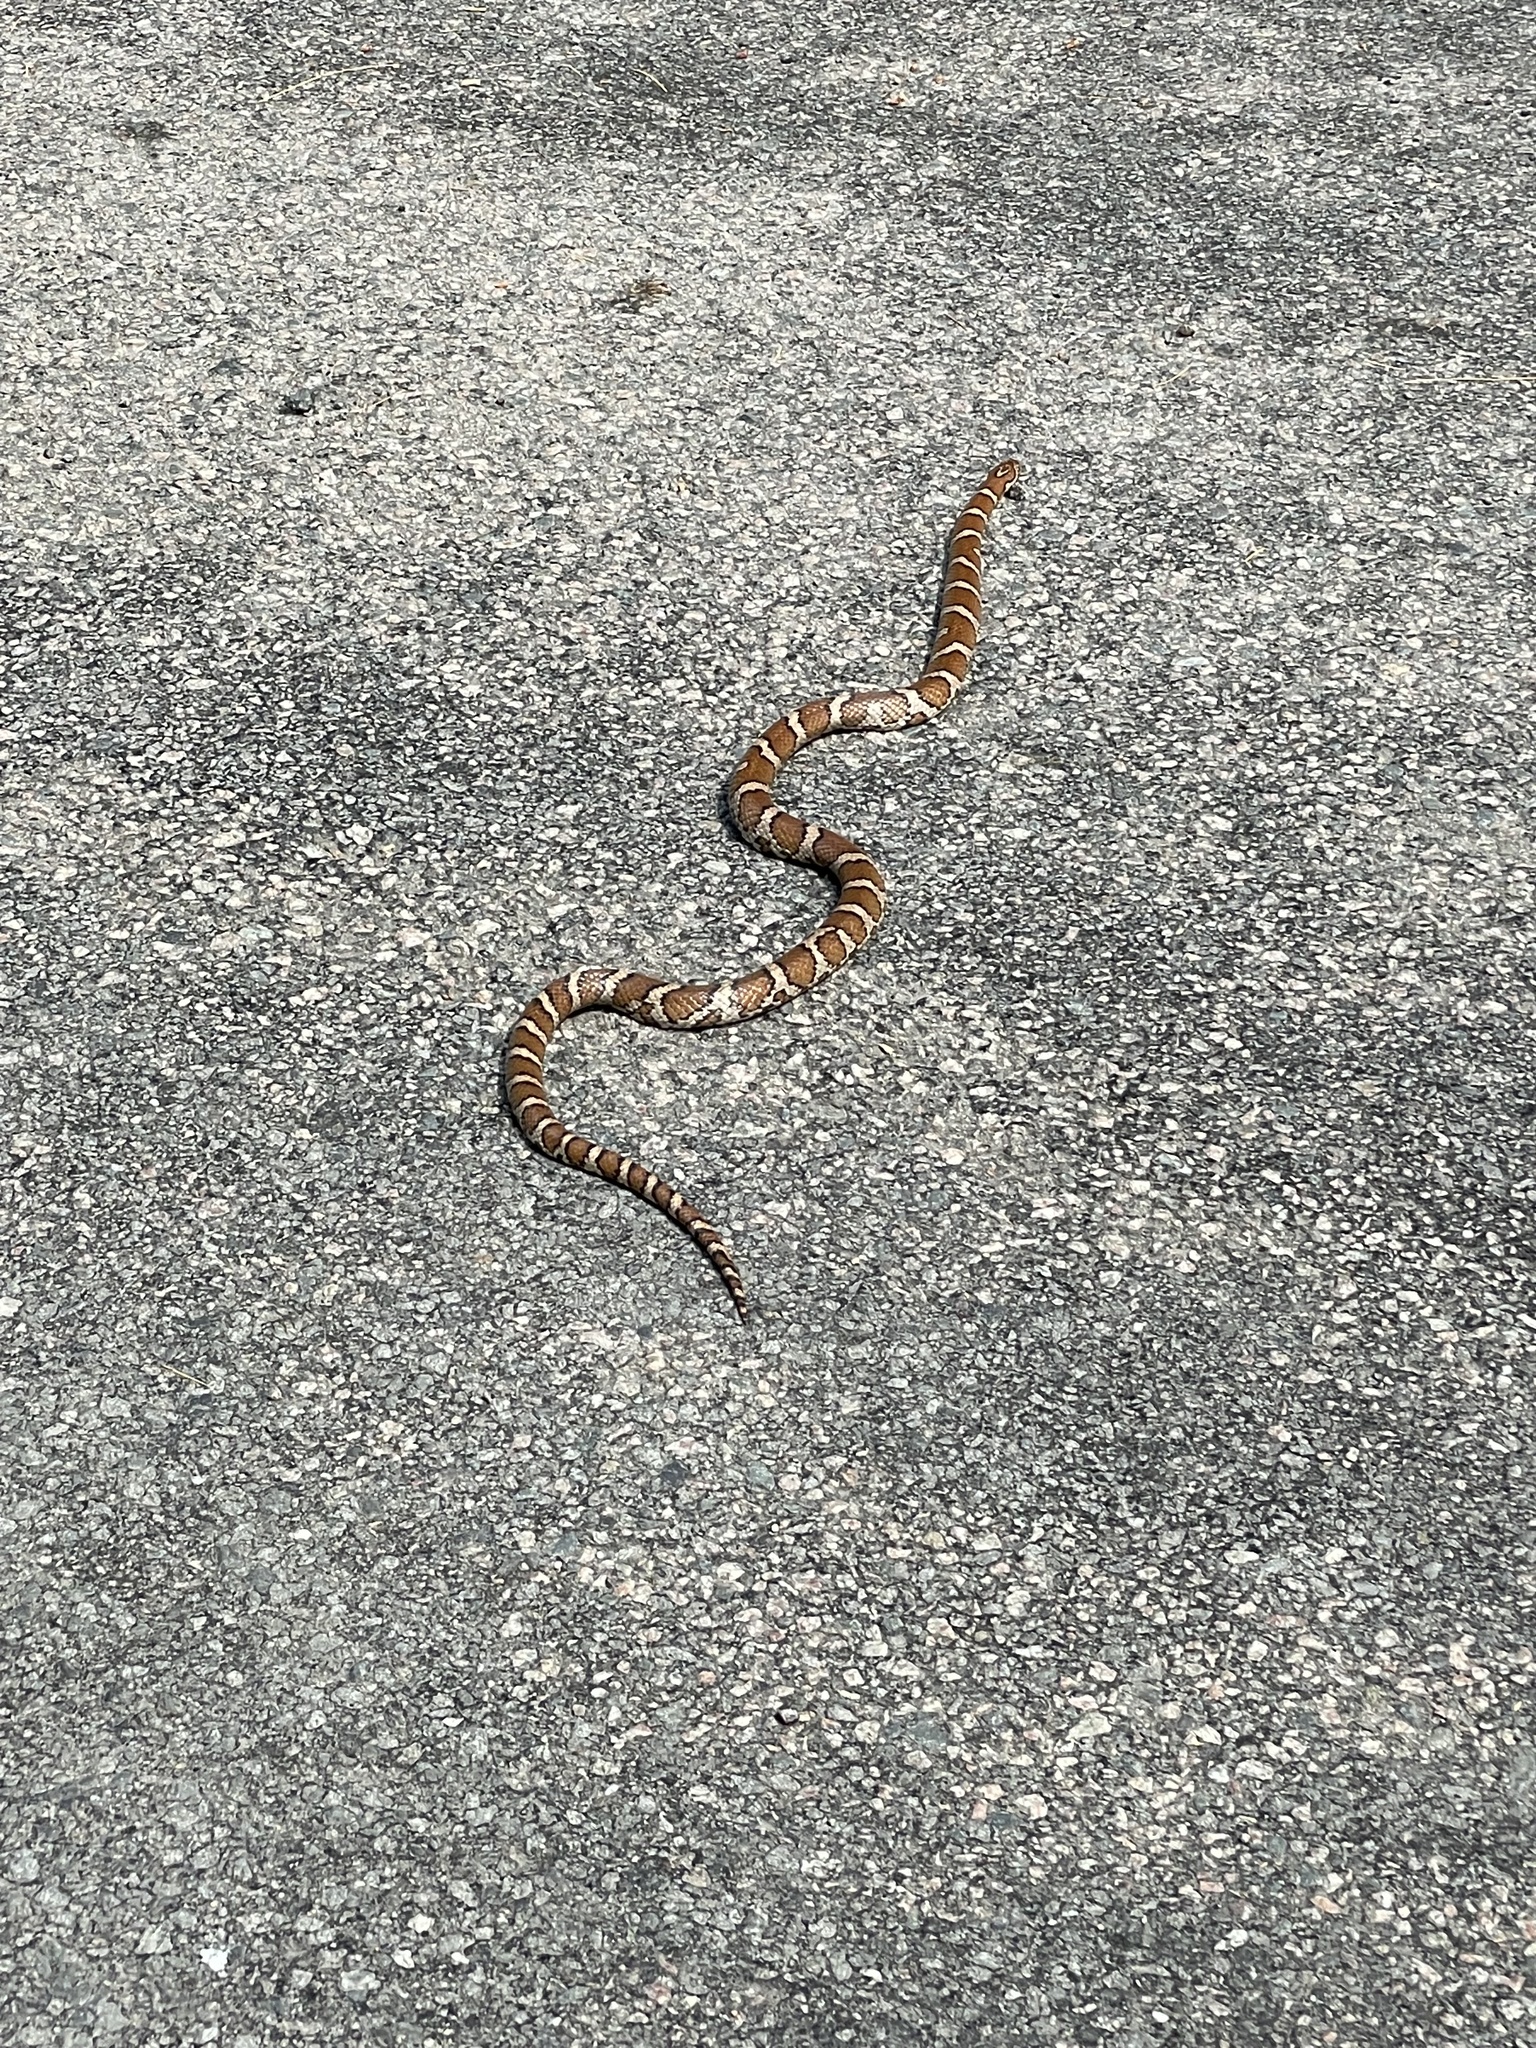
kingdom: Animalia
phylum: Chordata
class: Squamata
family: Colubridae
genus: Lampropeltis
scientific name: Lampropeltis triangulum
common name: Eastern milksnake
